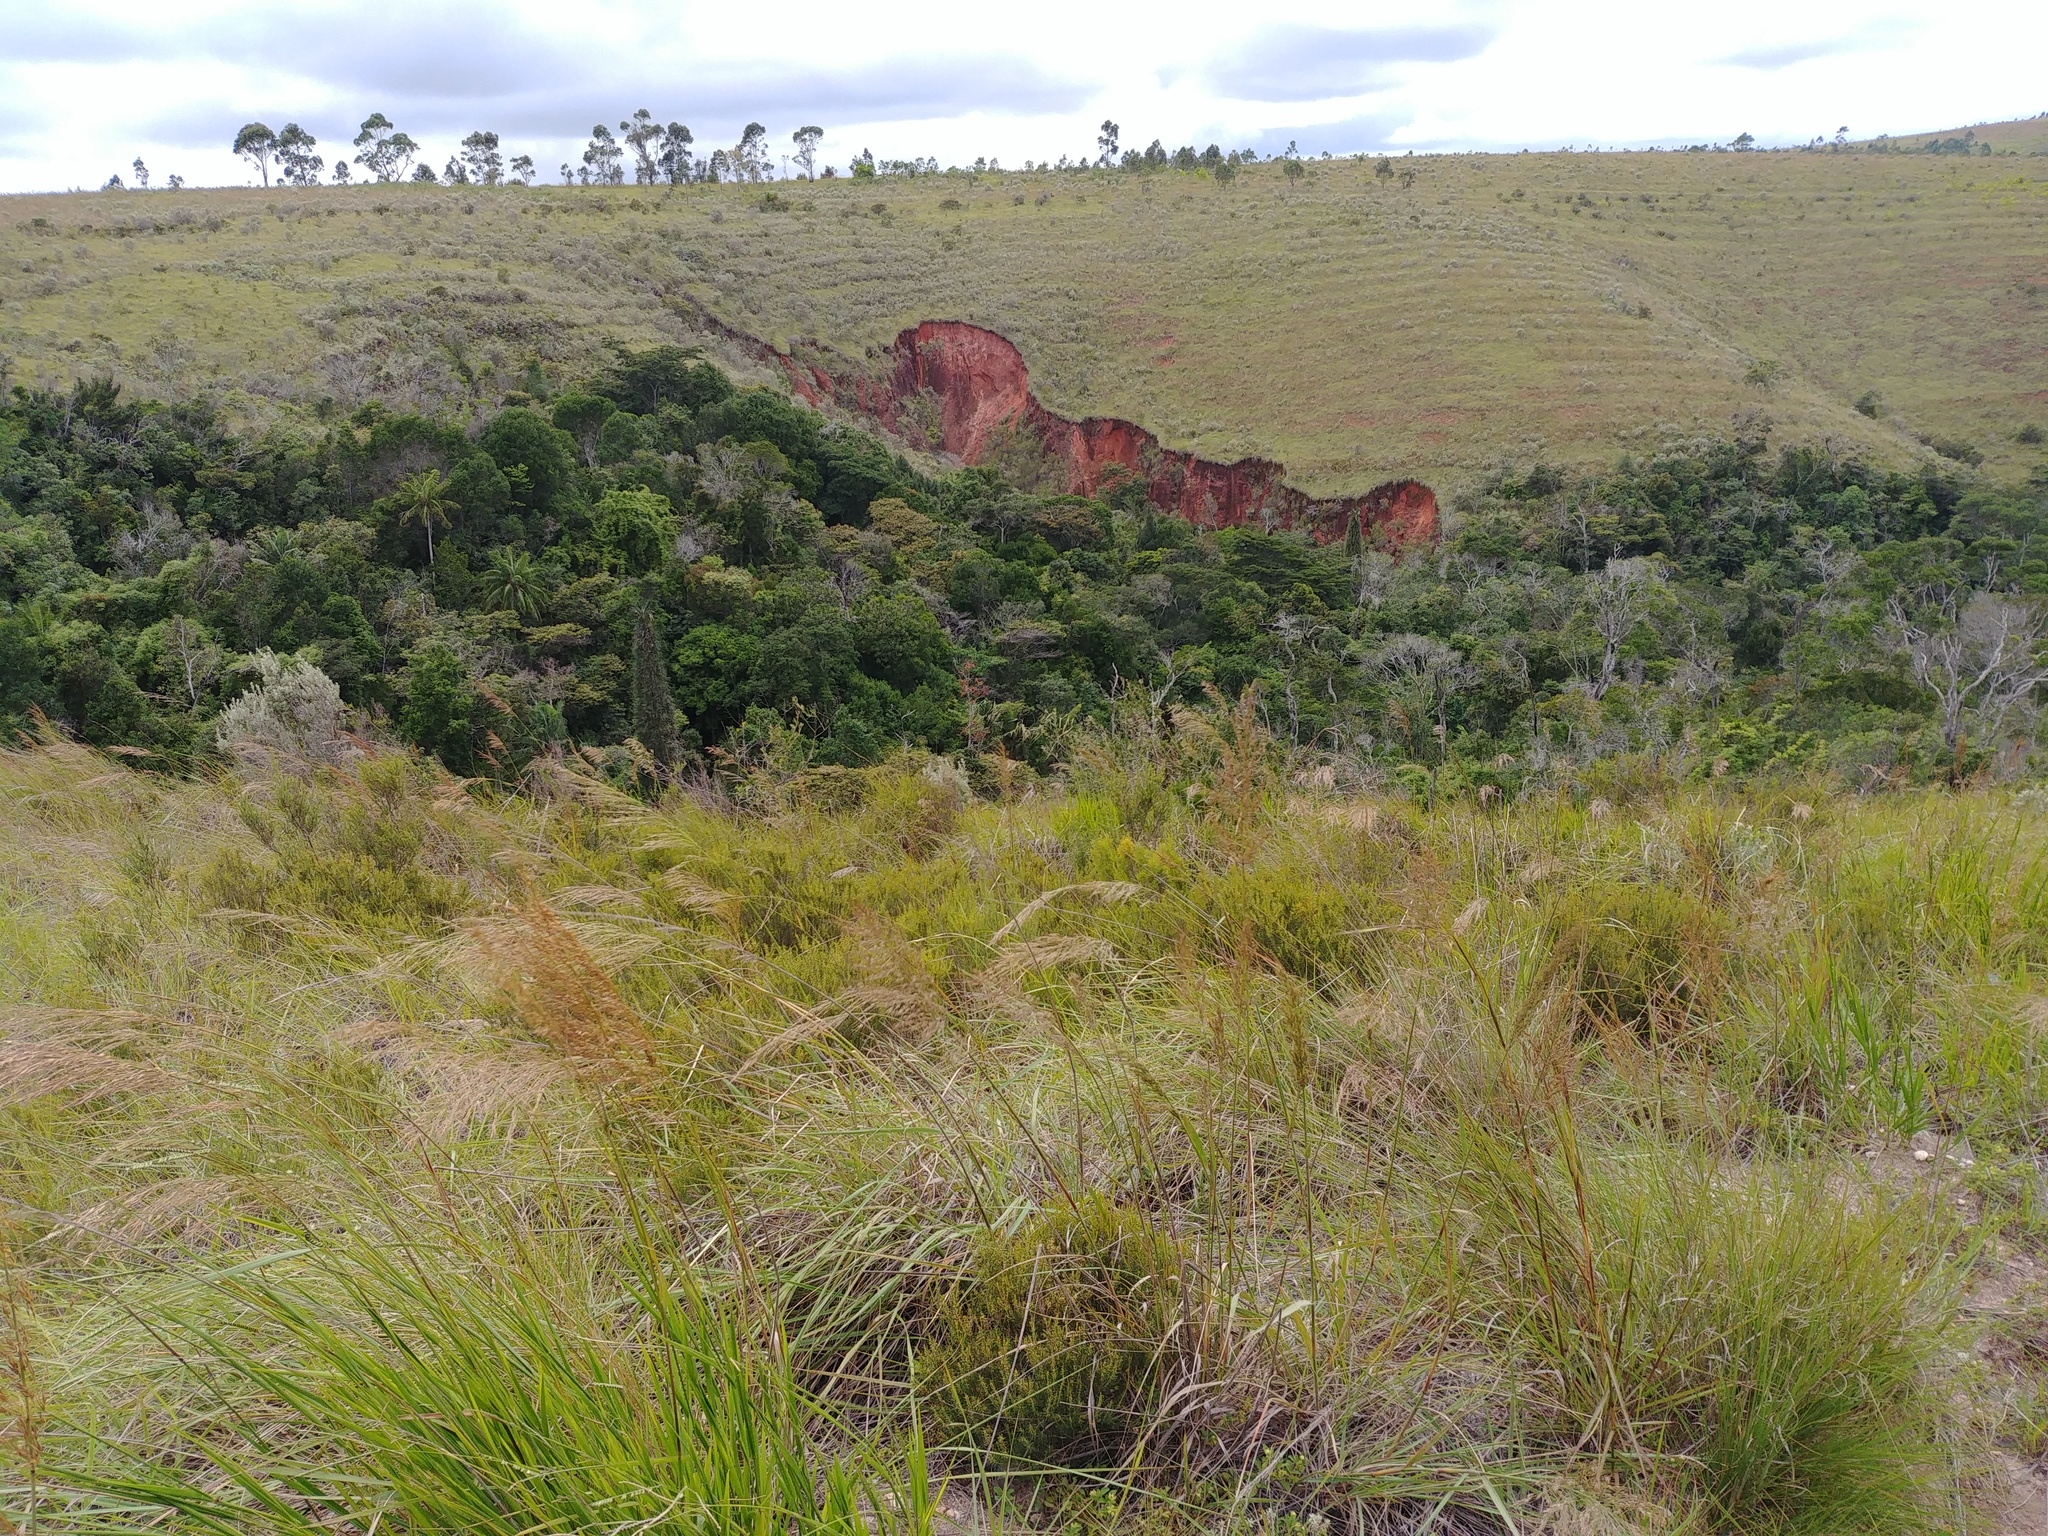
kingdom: Plantae
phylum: Tracheophyta
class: Liliopsida
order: Poales
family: Poaceae
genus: Loudetia
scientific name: Loudetia simplex
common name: Common russet grass
